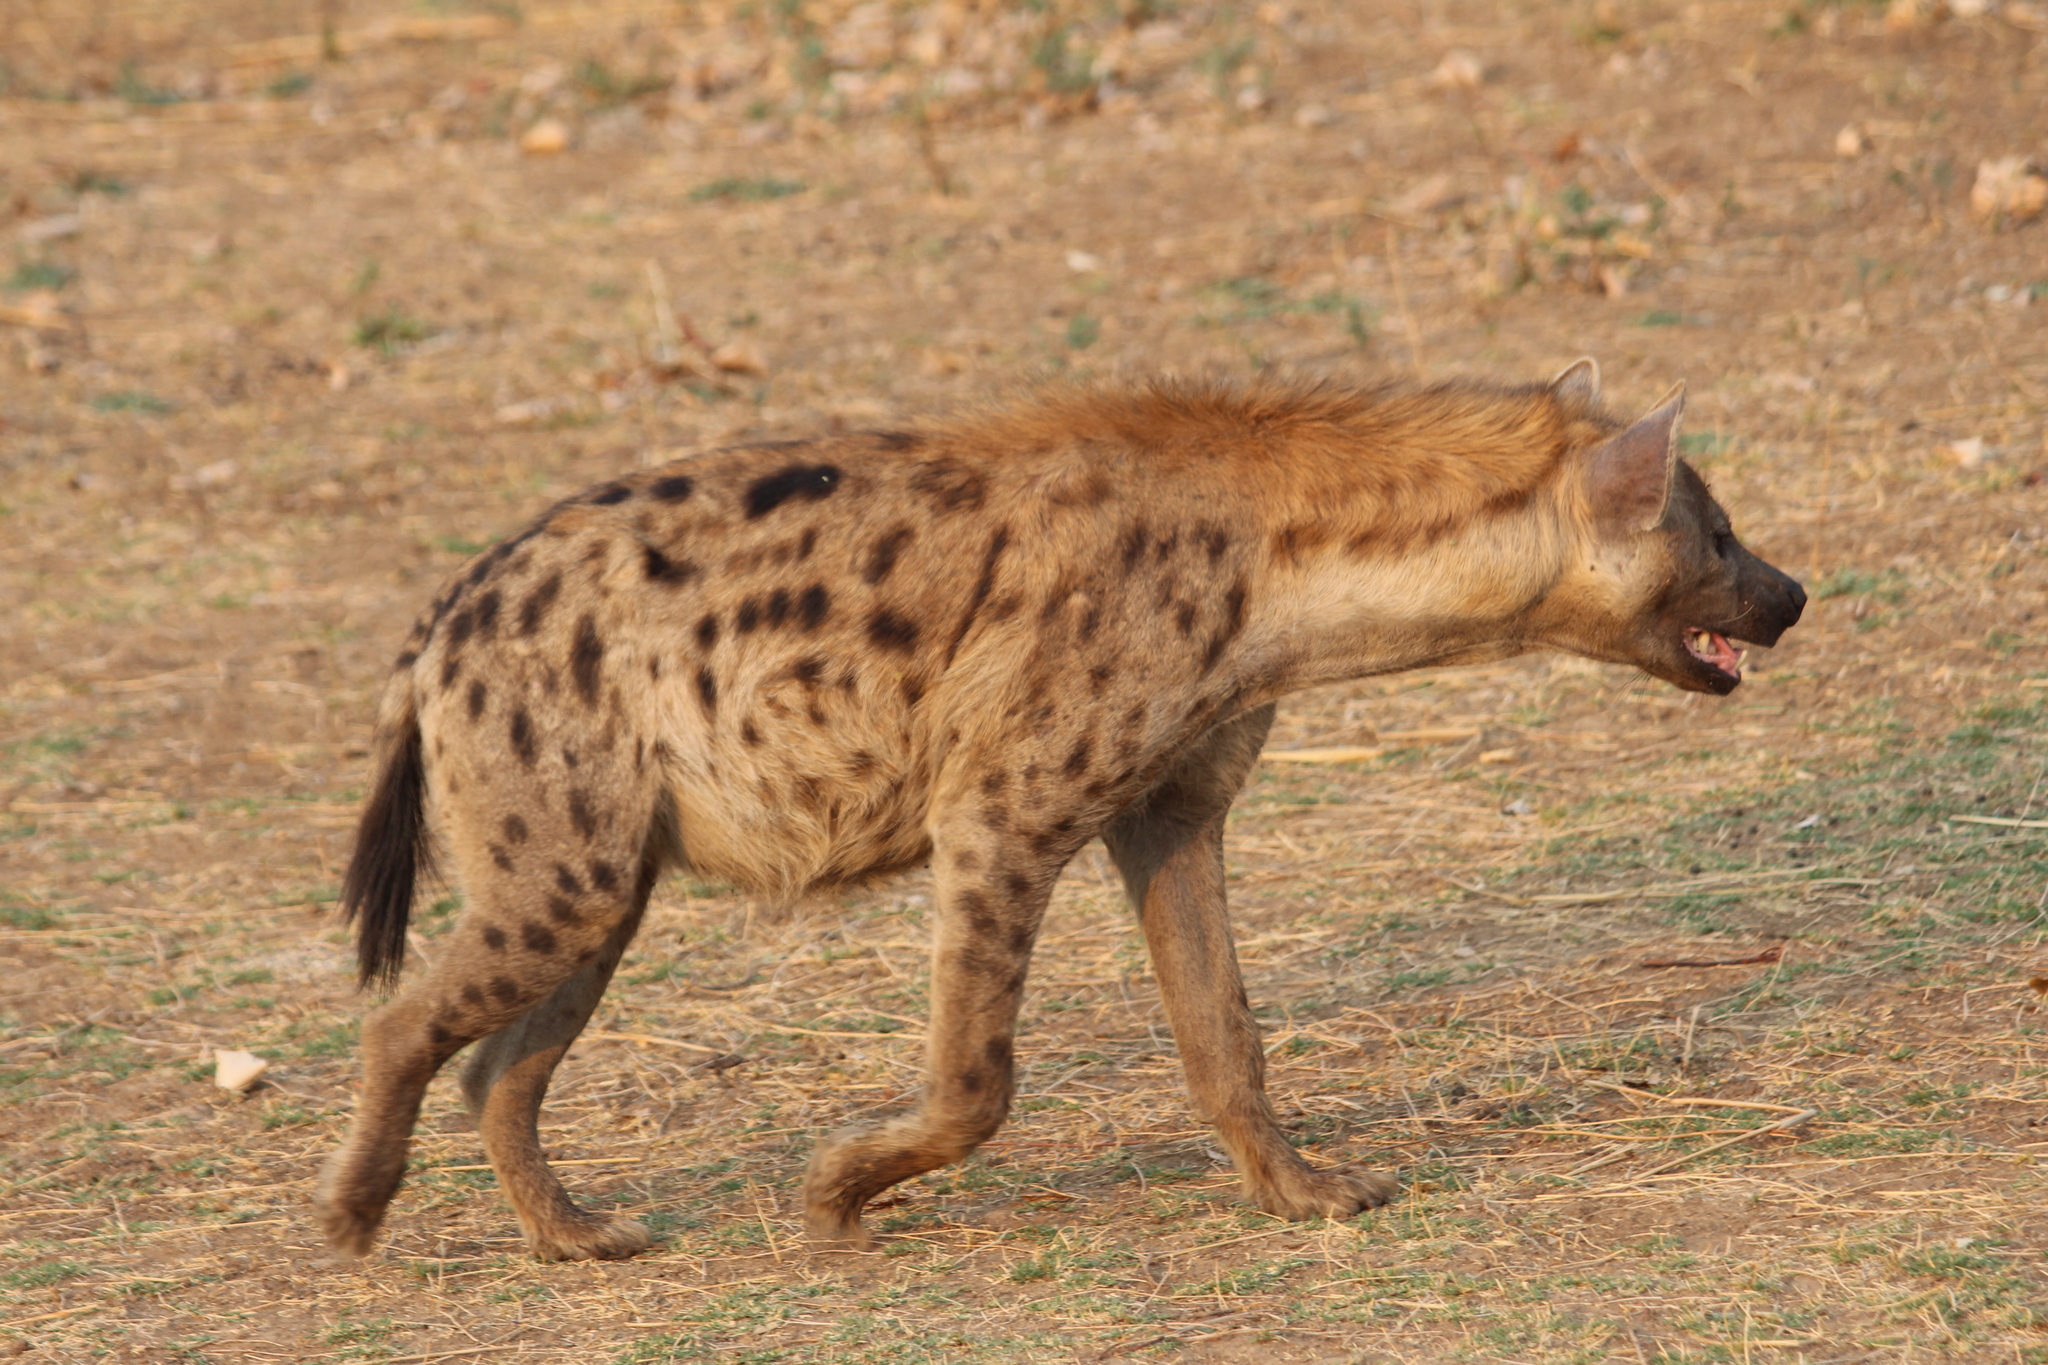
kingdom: Animalia
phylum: Chordata
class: Mammalia
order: Carnivora
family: Hyaenidae
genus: Crocuta
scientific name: Crocuta crocuta
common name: Spotted hyaena
